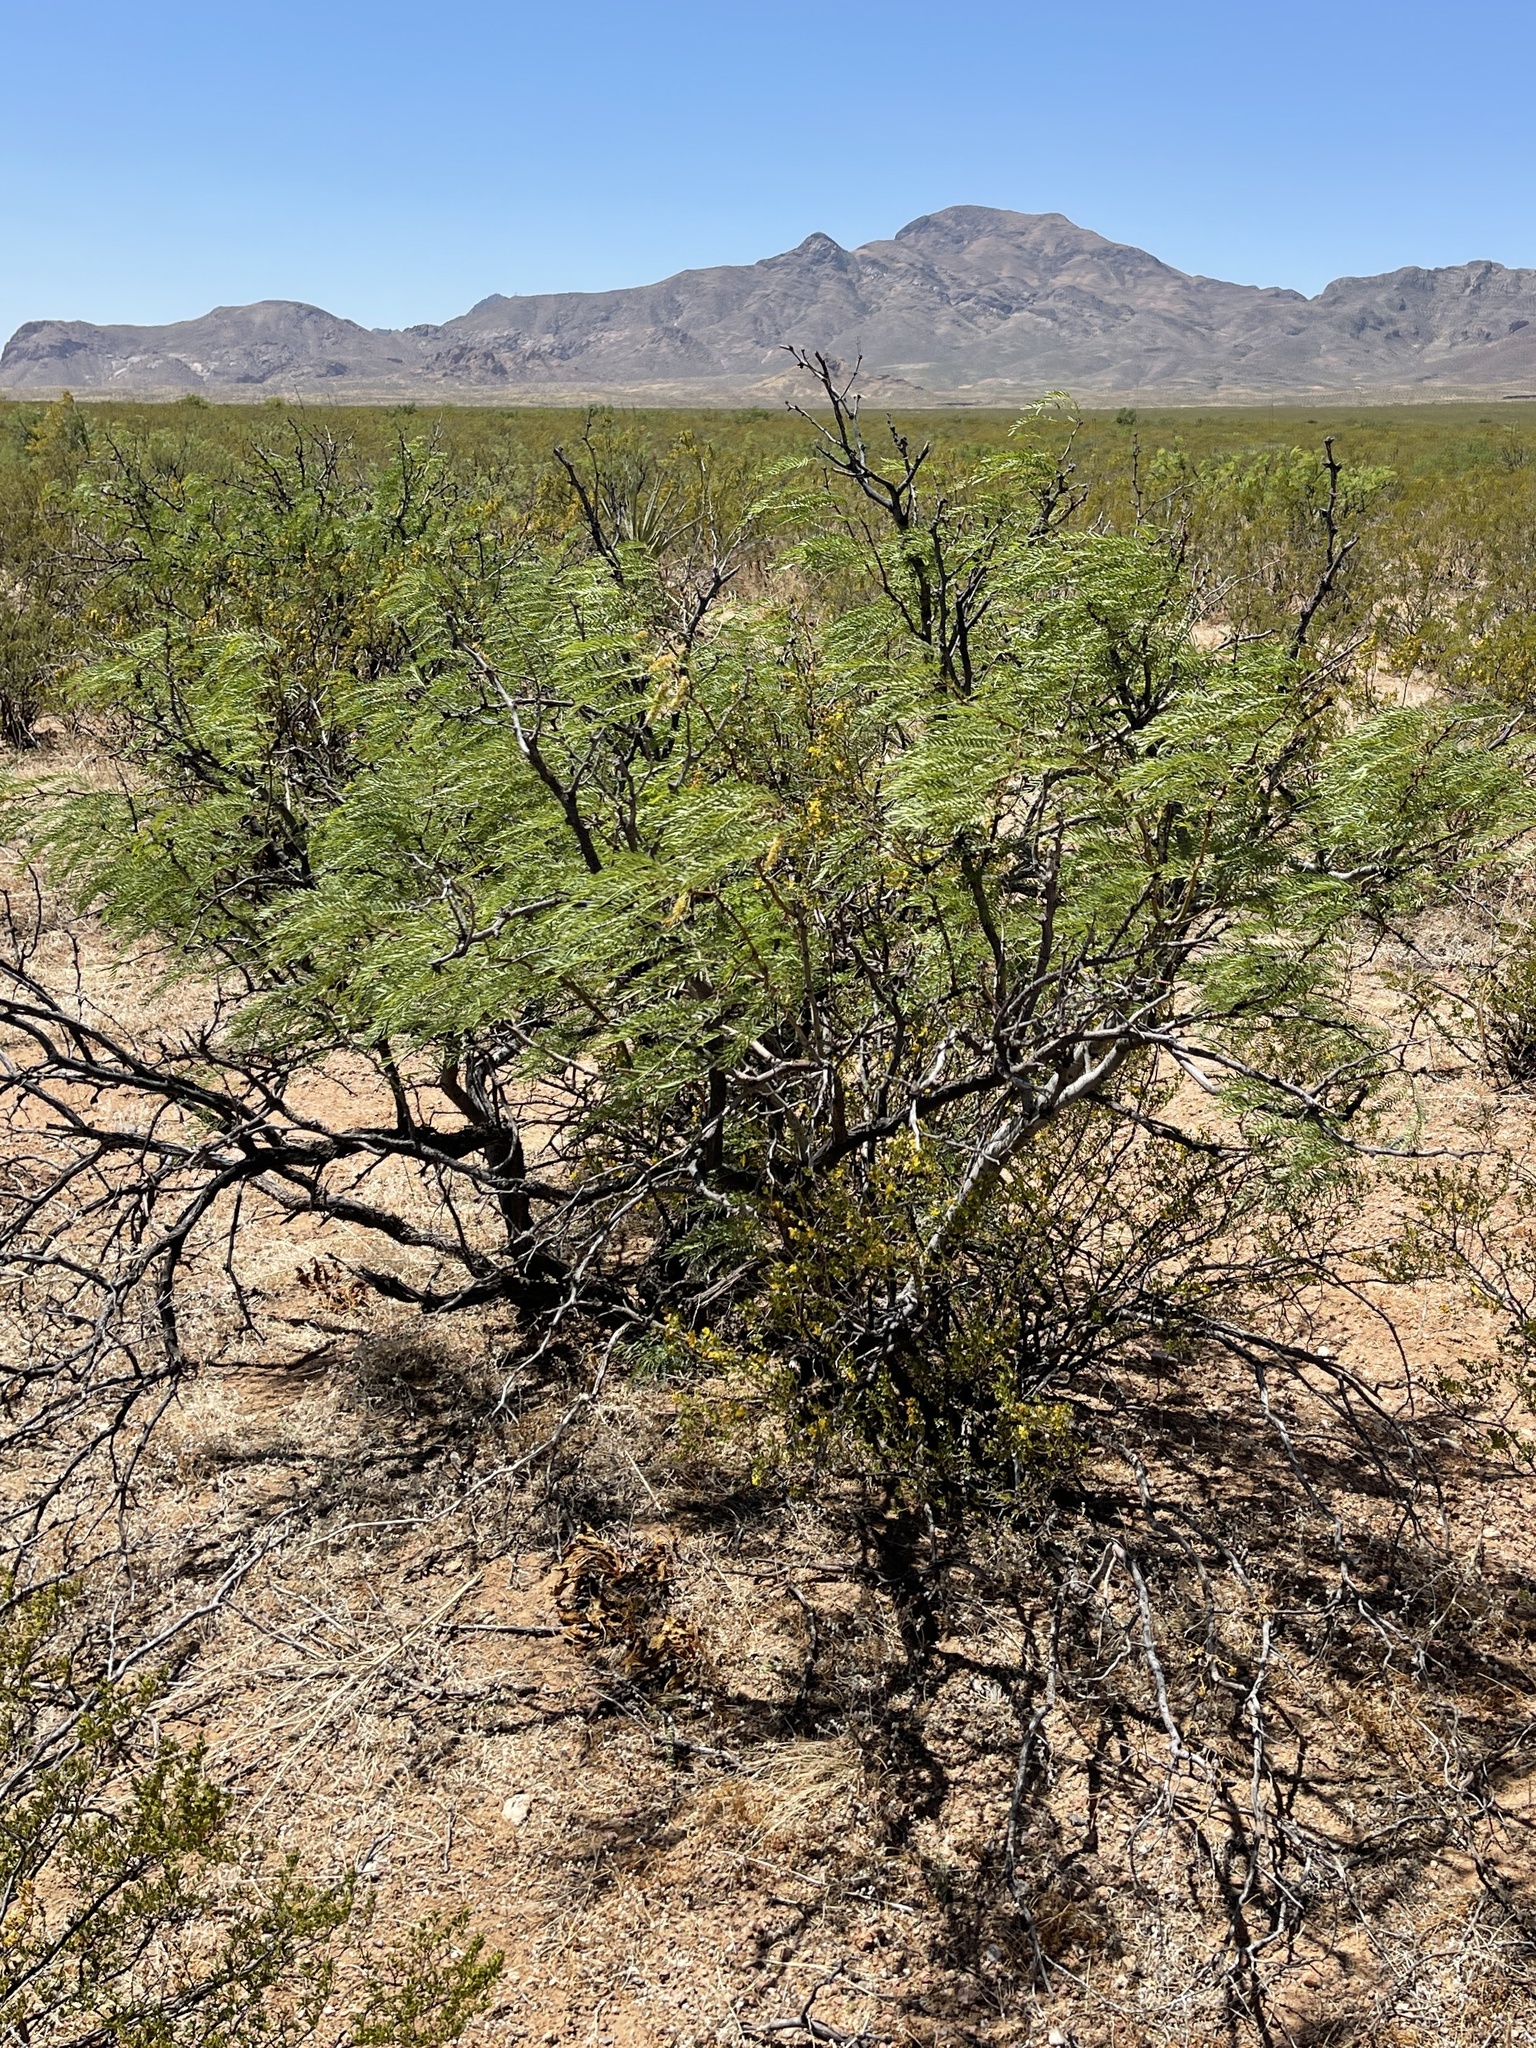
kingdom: Plantae
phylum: Tracheophyta
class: Magnoliopsida
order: Fabales
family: Fabaceae
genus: Prosopis
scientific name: Prosopis pubescens
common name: Screw-bean
